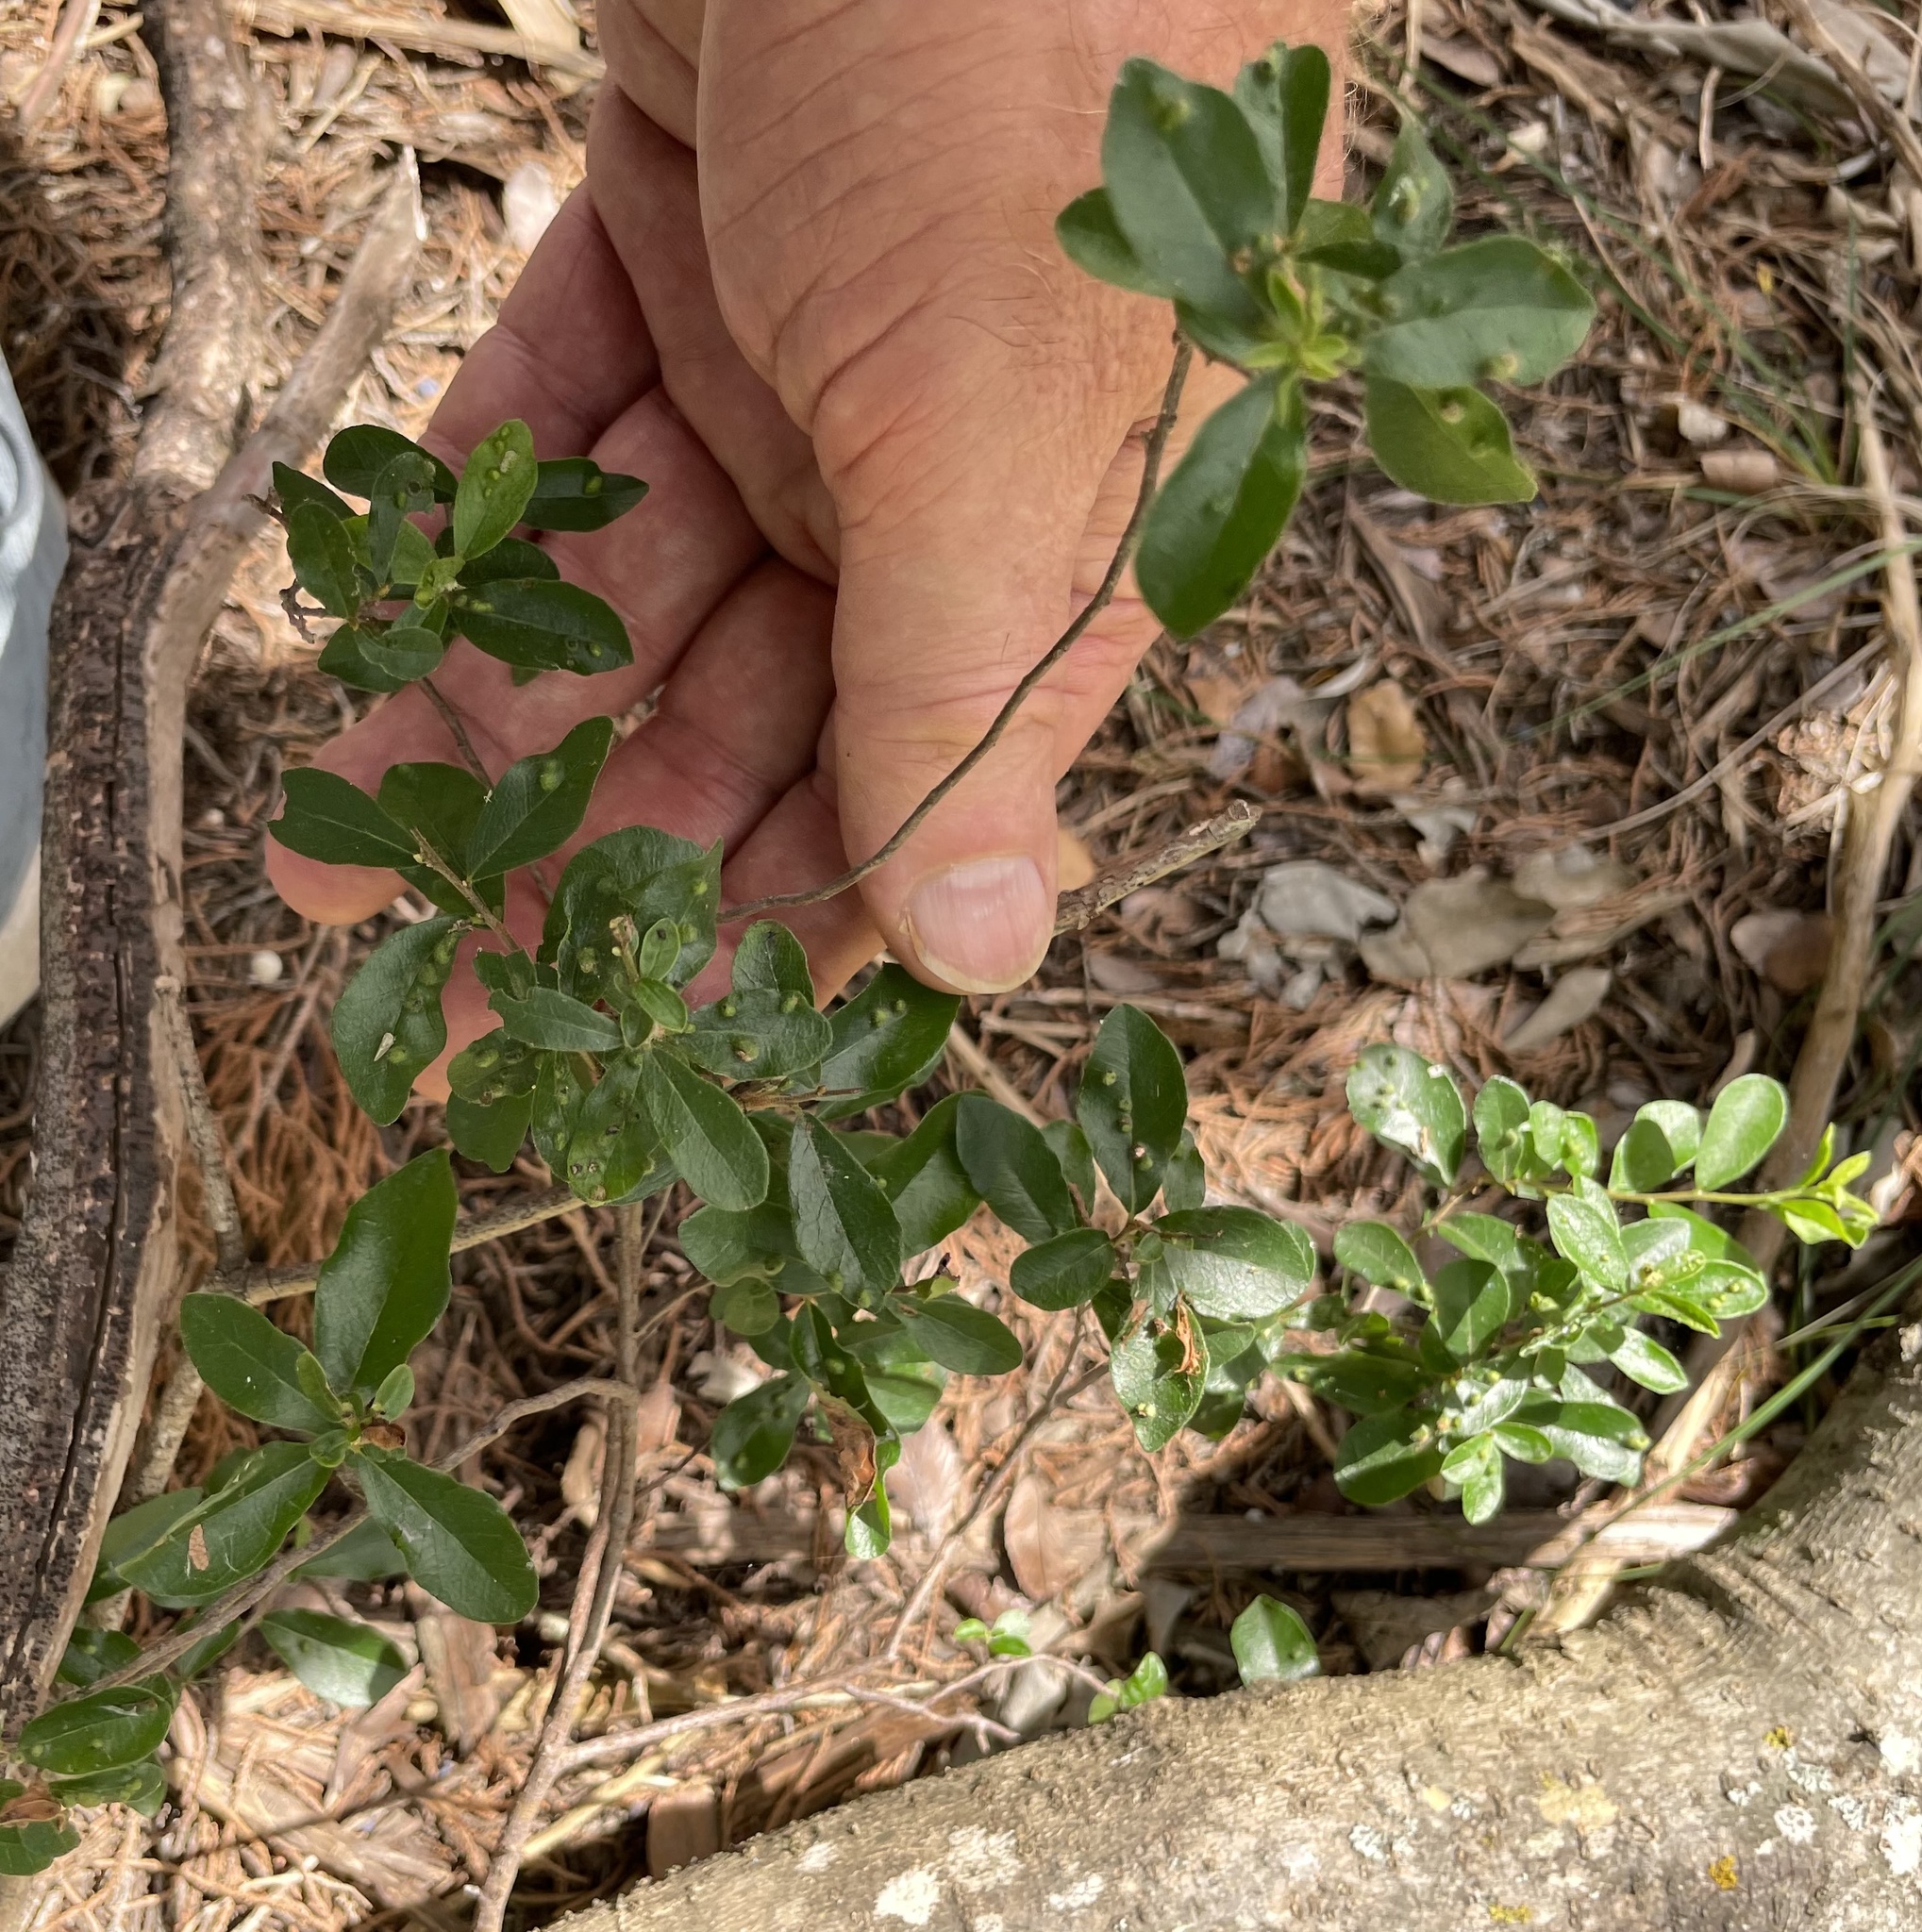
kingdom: Plantae
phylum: Tracheophyta
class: Magnoliopsida
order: Ericales
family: Ebenaceae
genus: Diospyros
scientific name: Diospyros texana
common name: Texas persimmon
